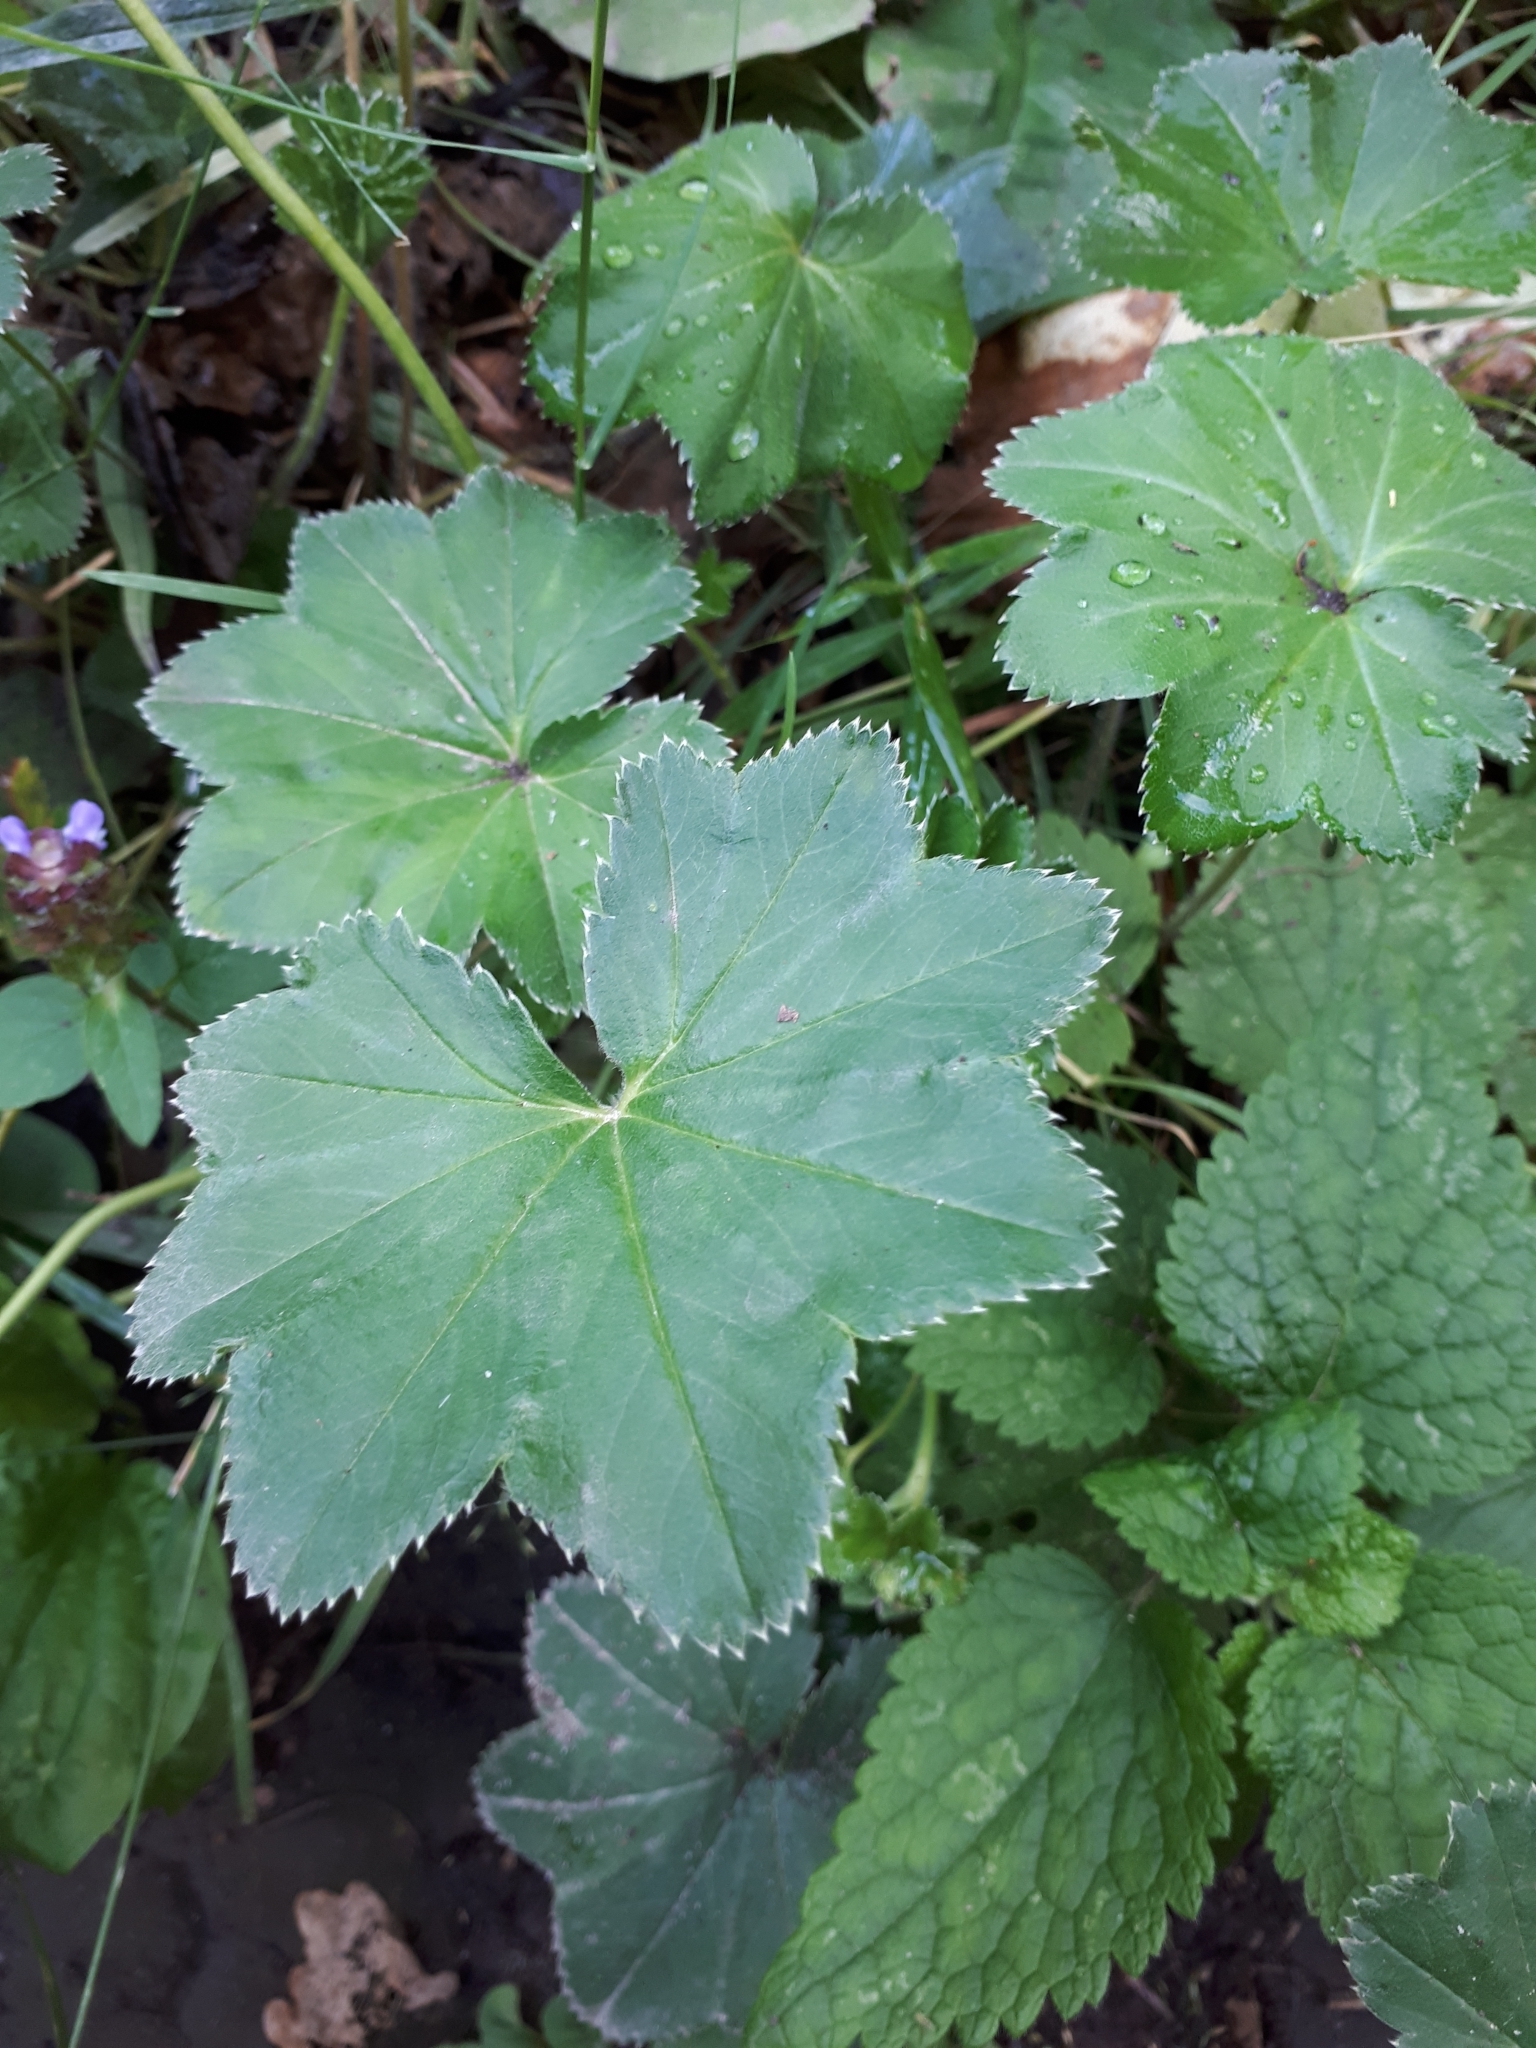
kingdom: Plantae
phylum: Tracheophyta
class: Magnoliopsida
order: Rosales
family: Rosaceae
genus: Alchemilla
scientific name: Alchemilla breviloba
